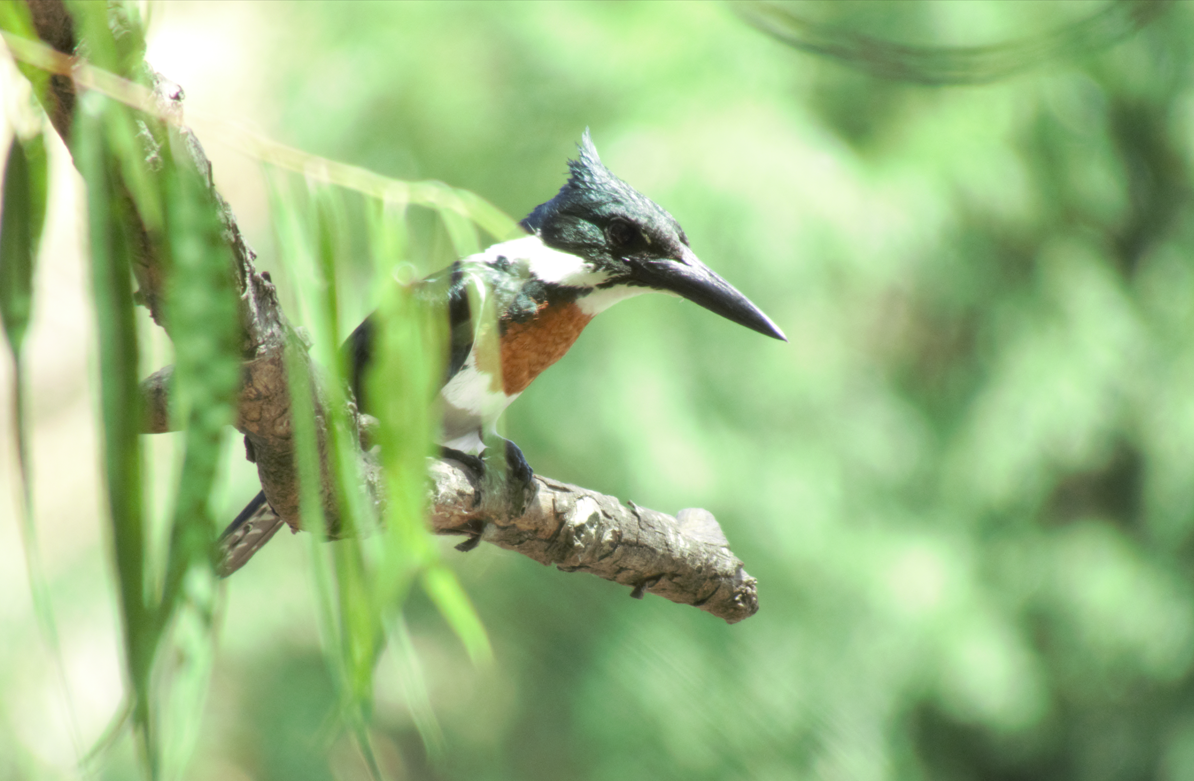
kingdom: Animalia
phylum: Chordata
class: Aves
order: Coraciiformes
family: Alcedinidae
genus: Chloroceryle
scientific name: Chloroceryle amazona
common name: Amazon kingfisher
